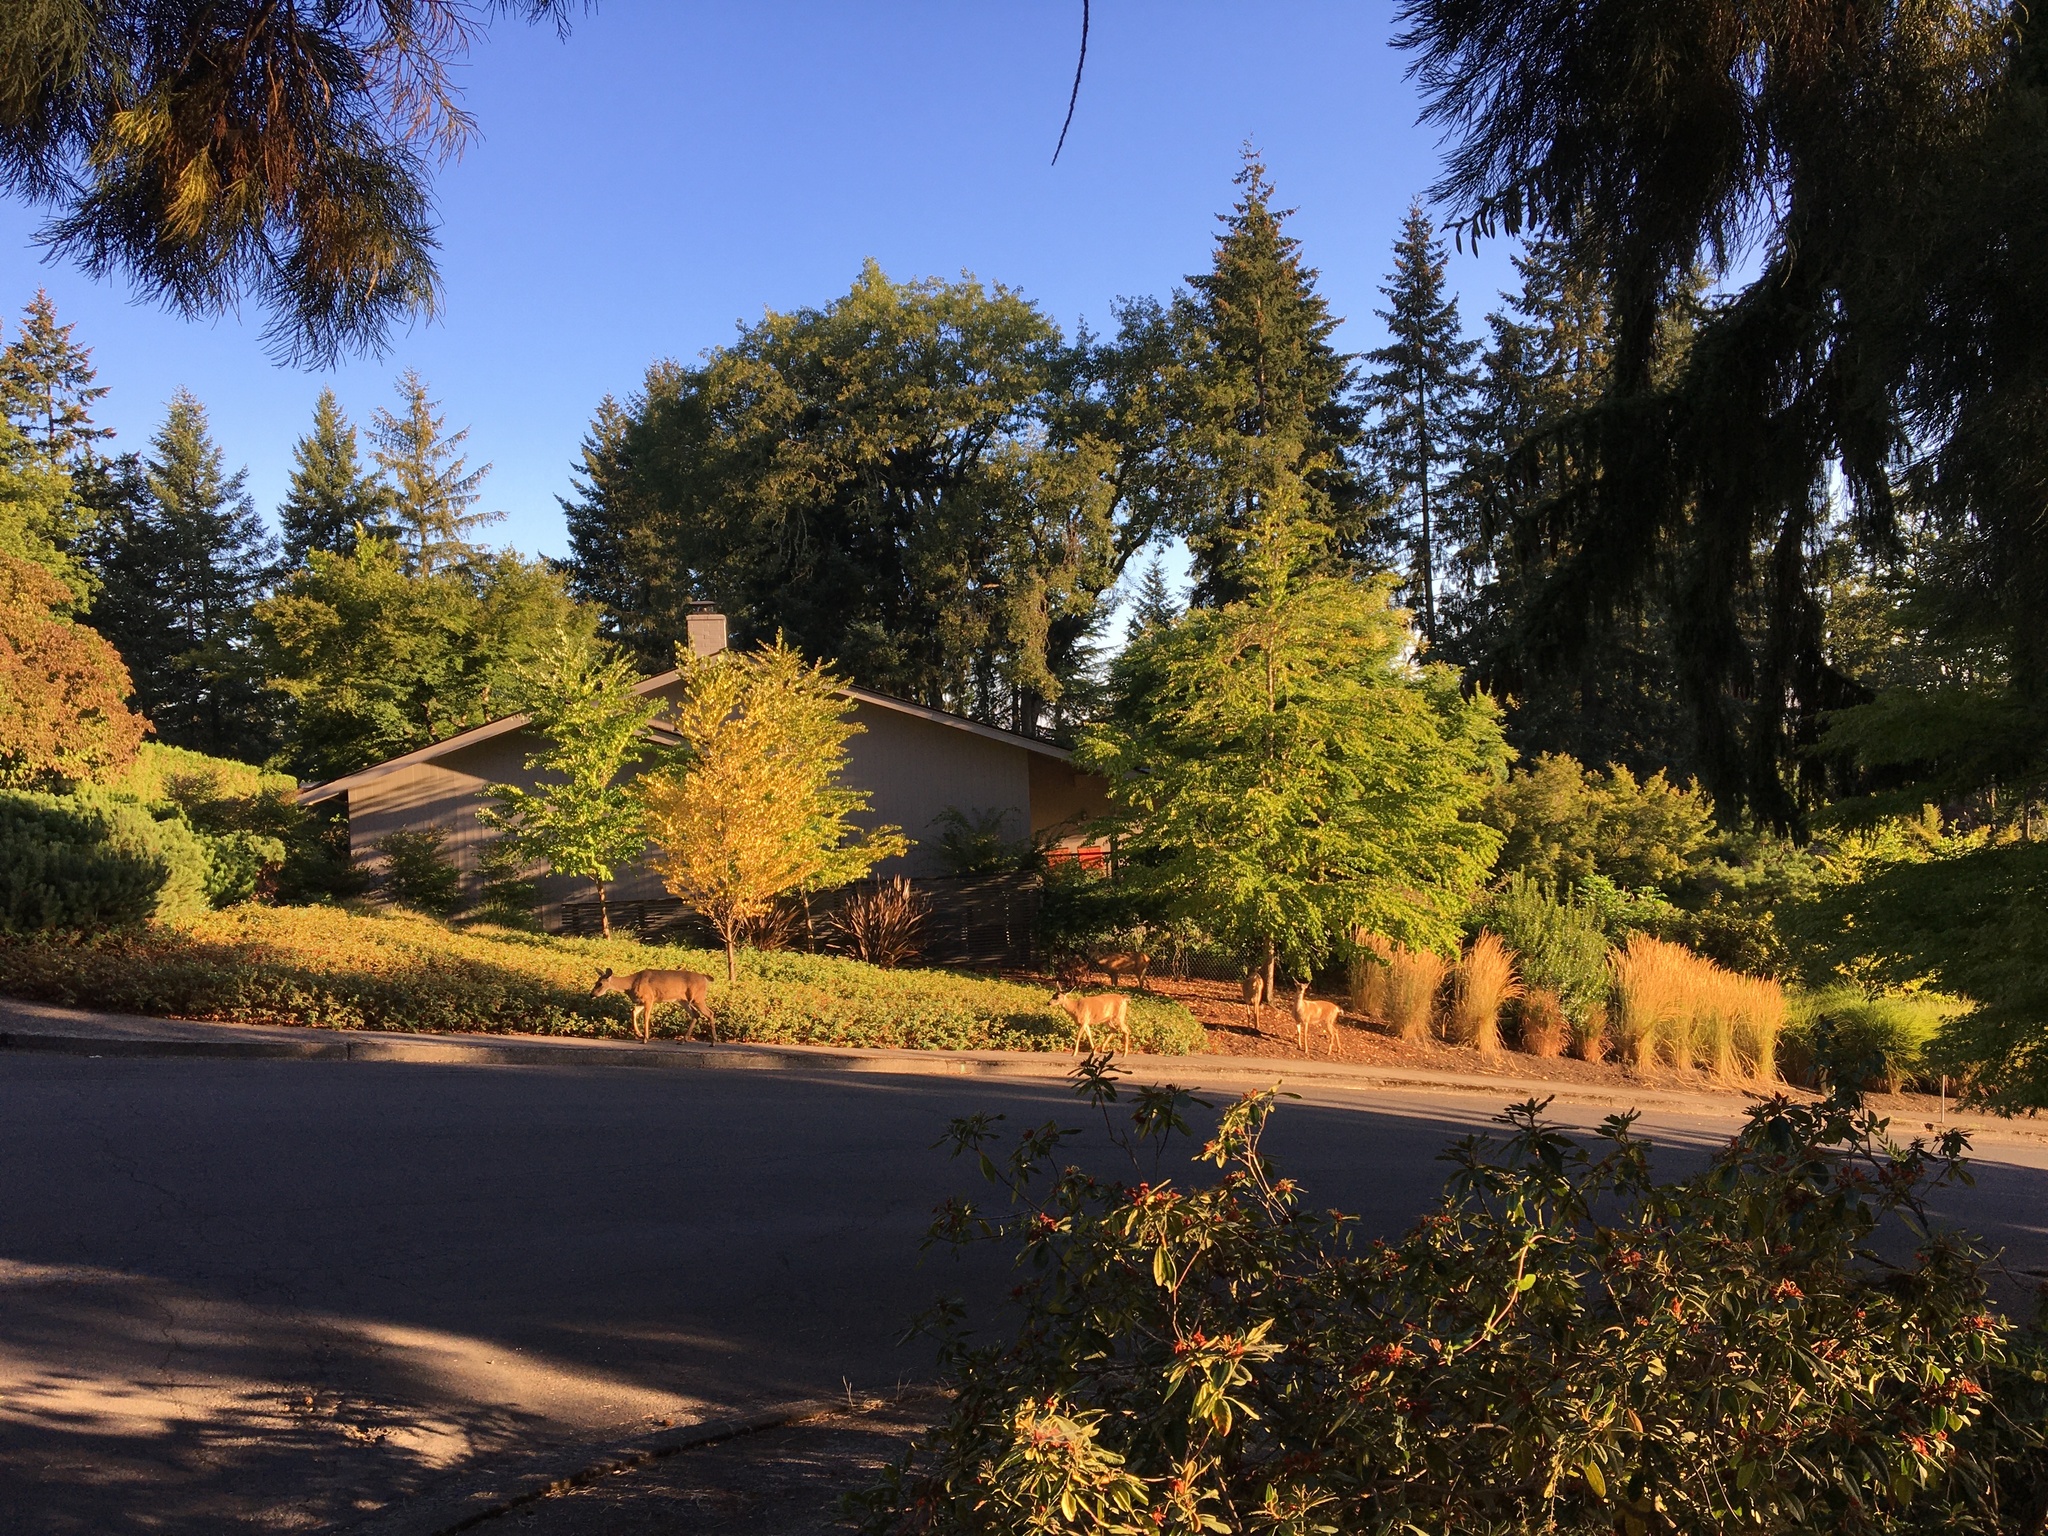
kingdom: Animalia
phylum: Chordata
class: Mammalia
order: Artiodactyla
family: Cervidae
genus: Odocoileus
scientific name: Odocoileus hemionus
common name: Mule deer
